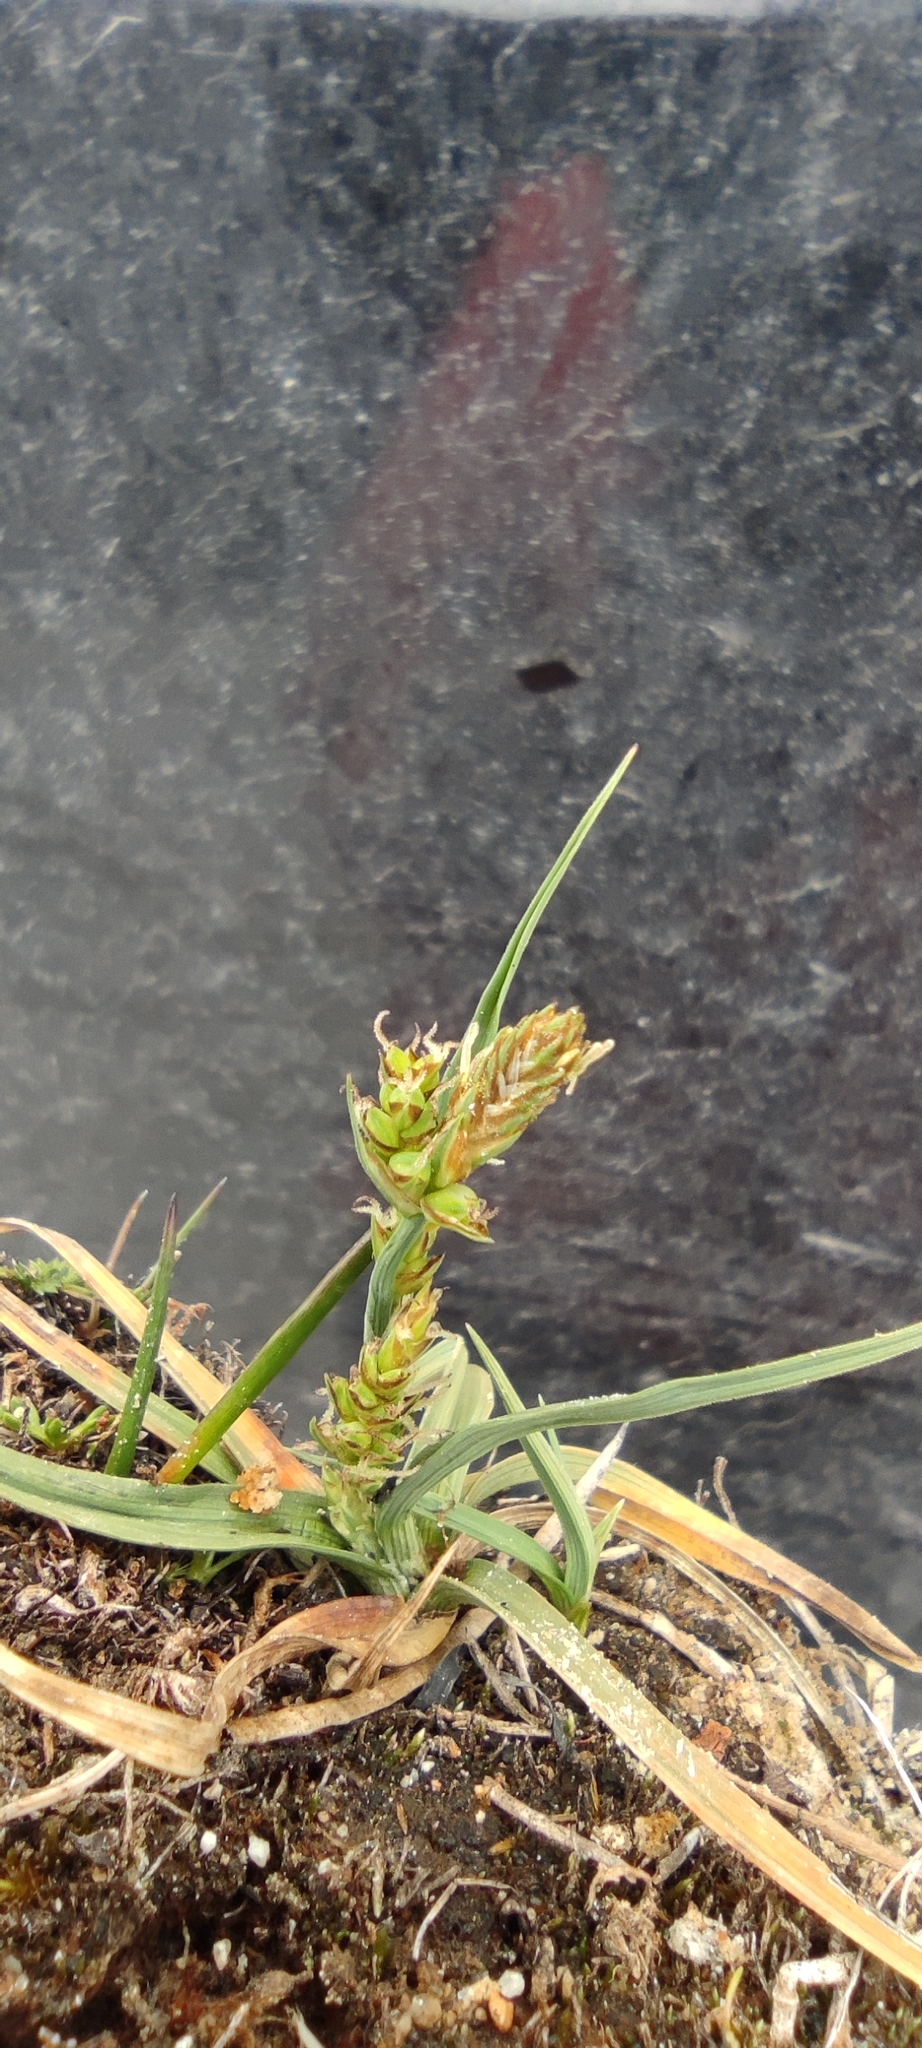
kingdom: Plantae
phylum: Tracheophyta
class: Liliopsida
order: Poales
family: Cyperaceae
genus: Carex
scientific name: Carex brachycalama
